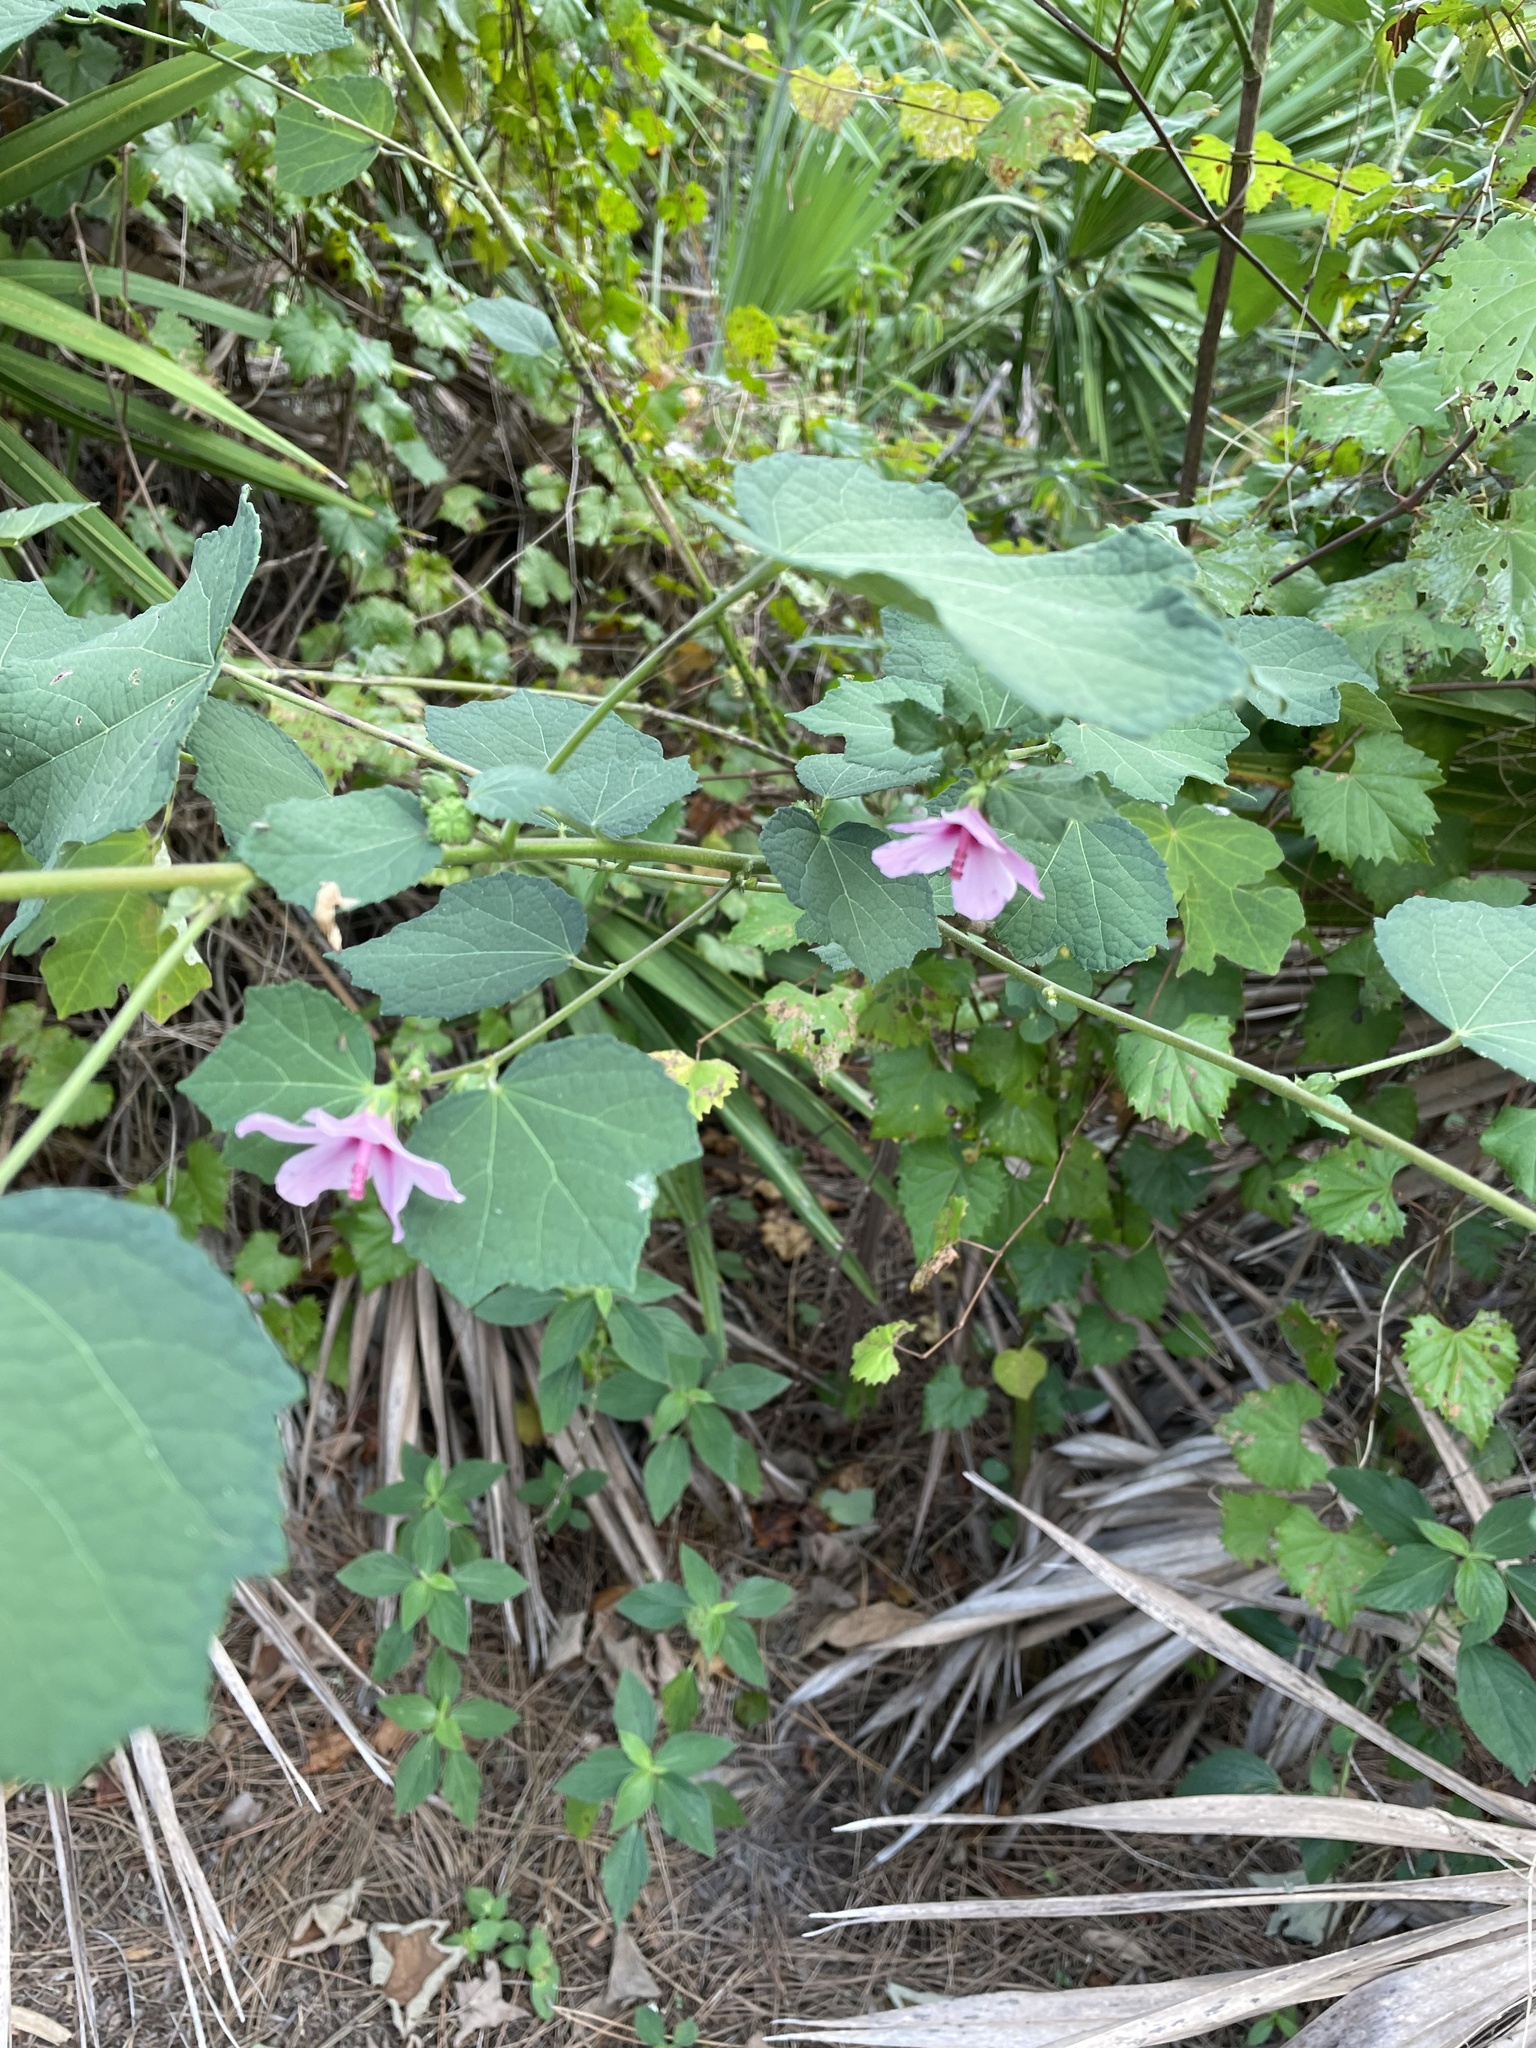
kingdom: Plantae
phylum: Tracheophyta
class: Magnoliopsida
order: Malvales
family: Malvaceae
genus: Urena
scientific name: Urena lobata
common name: Caesarweed
